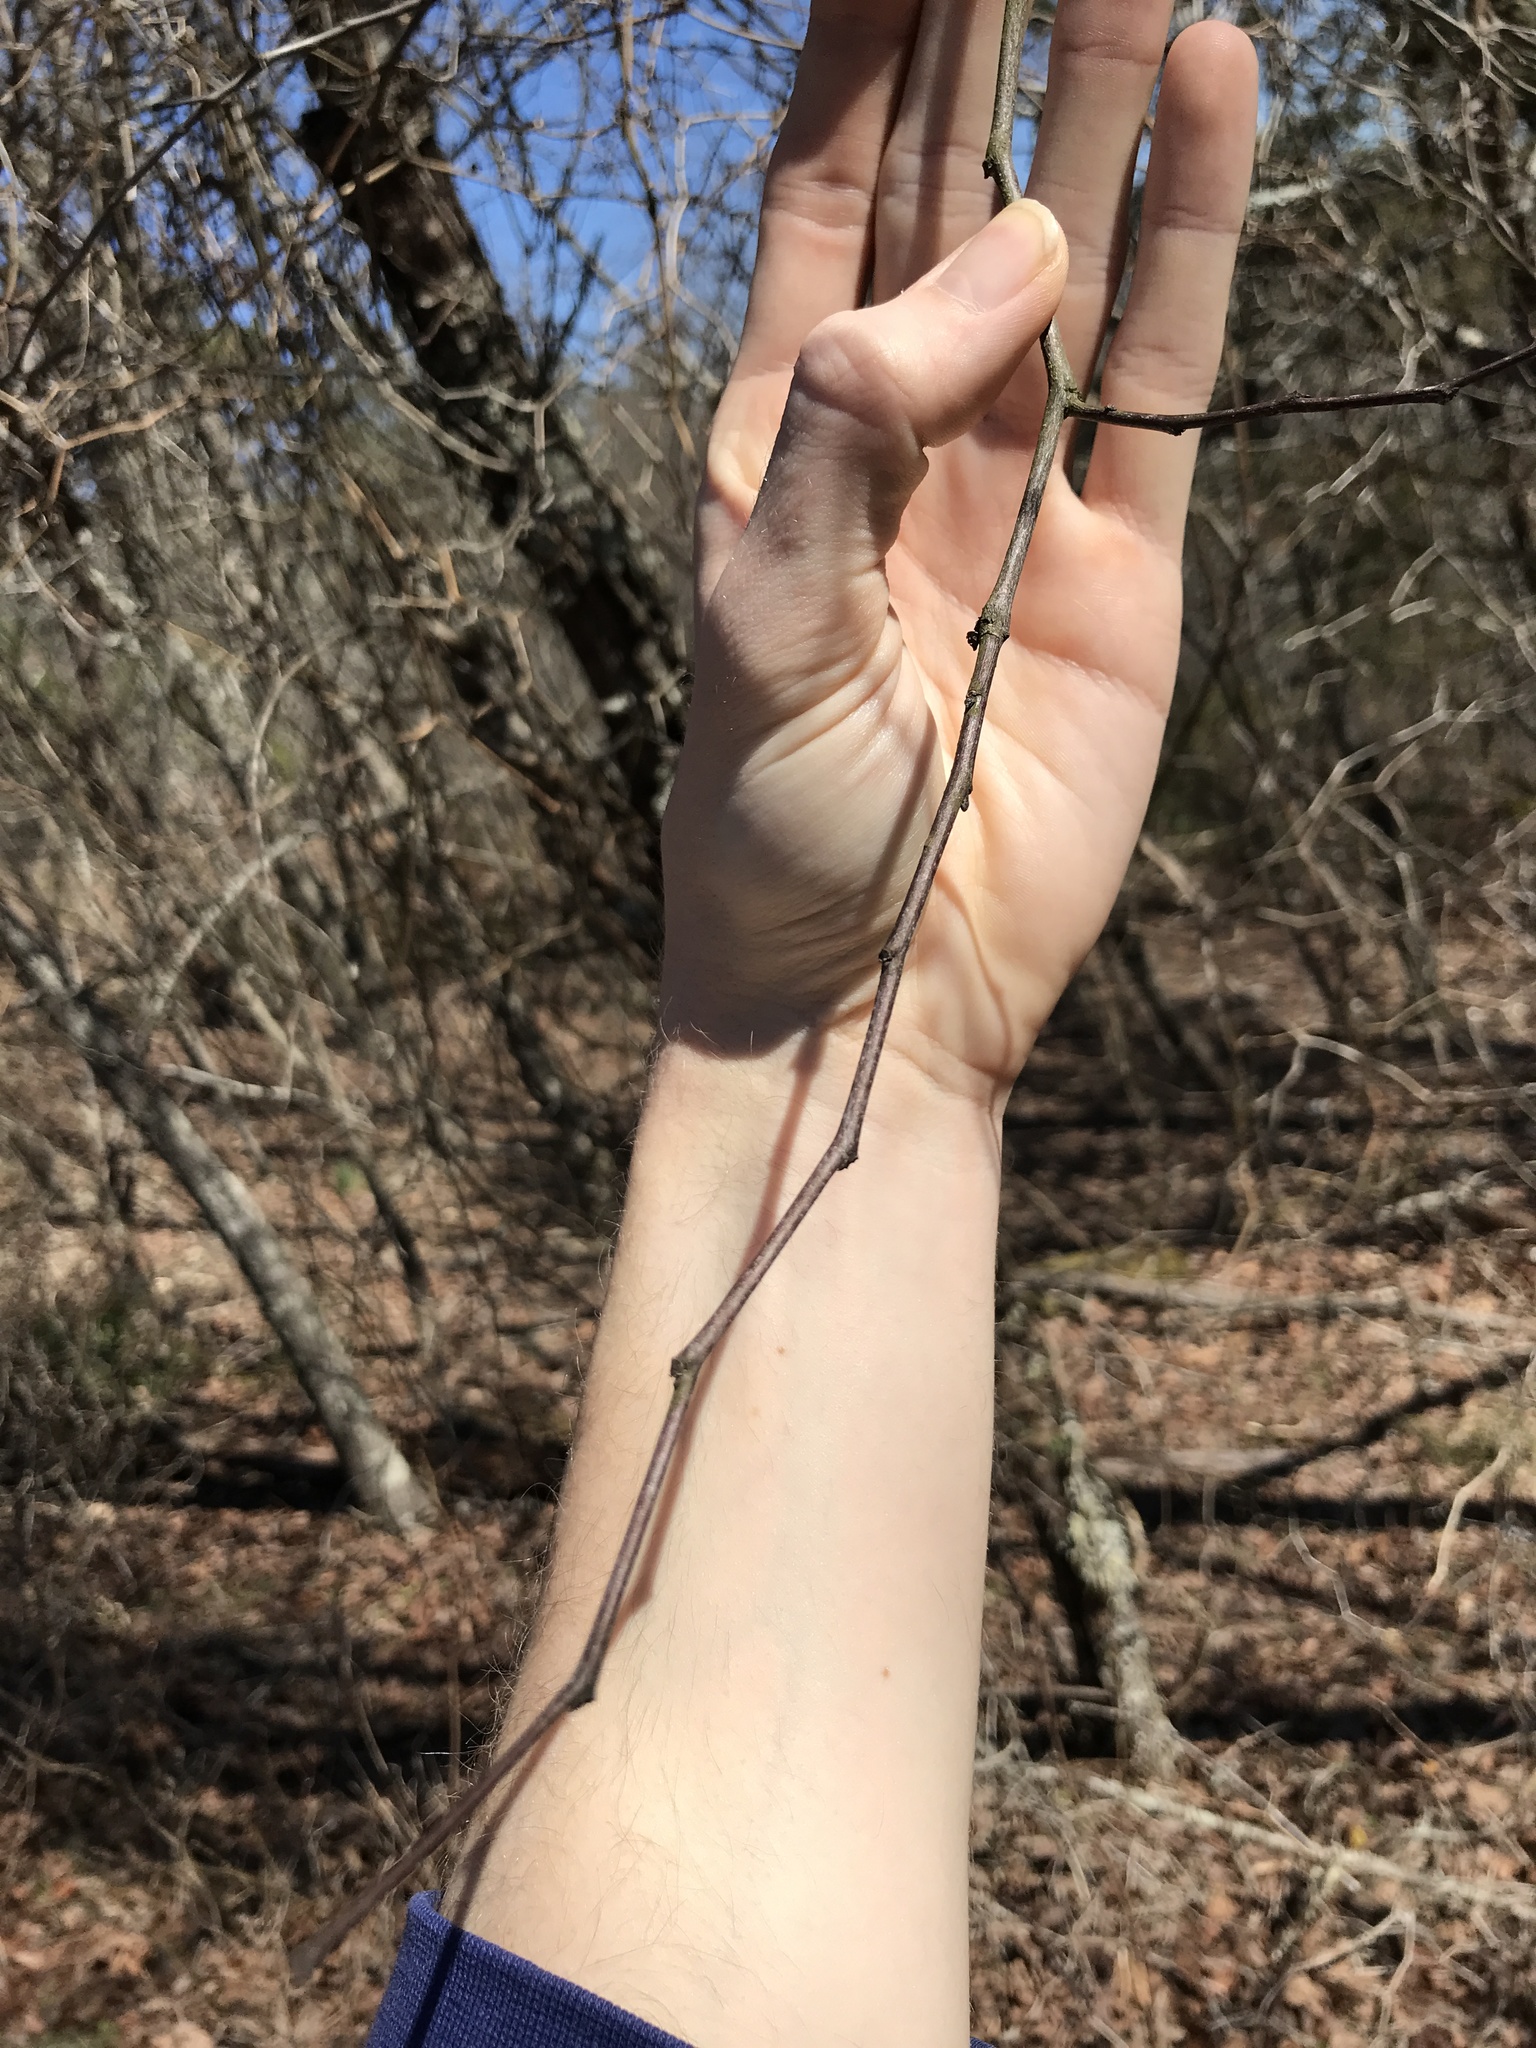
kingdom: Plantae
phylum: Tracheophyta
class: Magnoliopsida
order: Fabales
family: Fabaceae
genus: Cercis
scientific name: Cercis canadensis
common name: Eastern redbud
